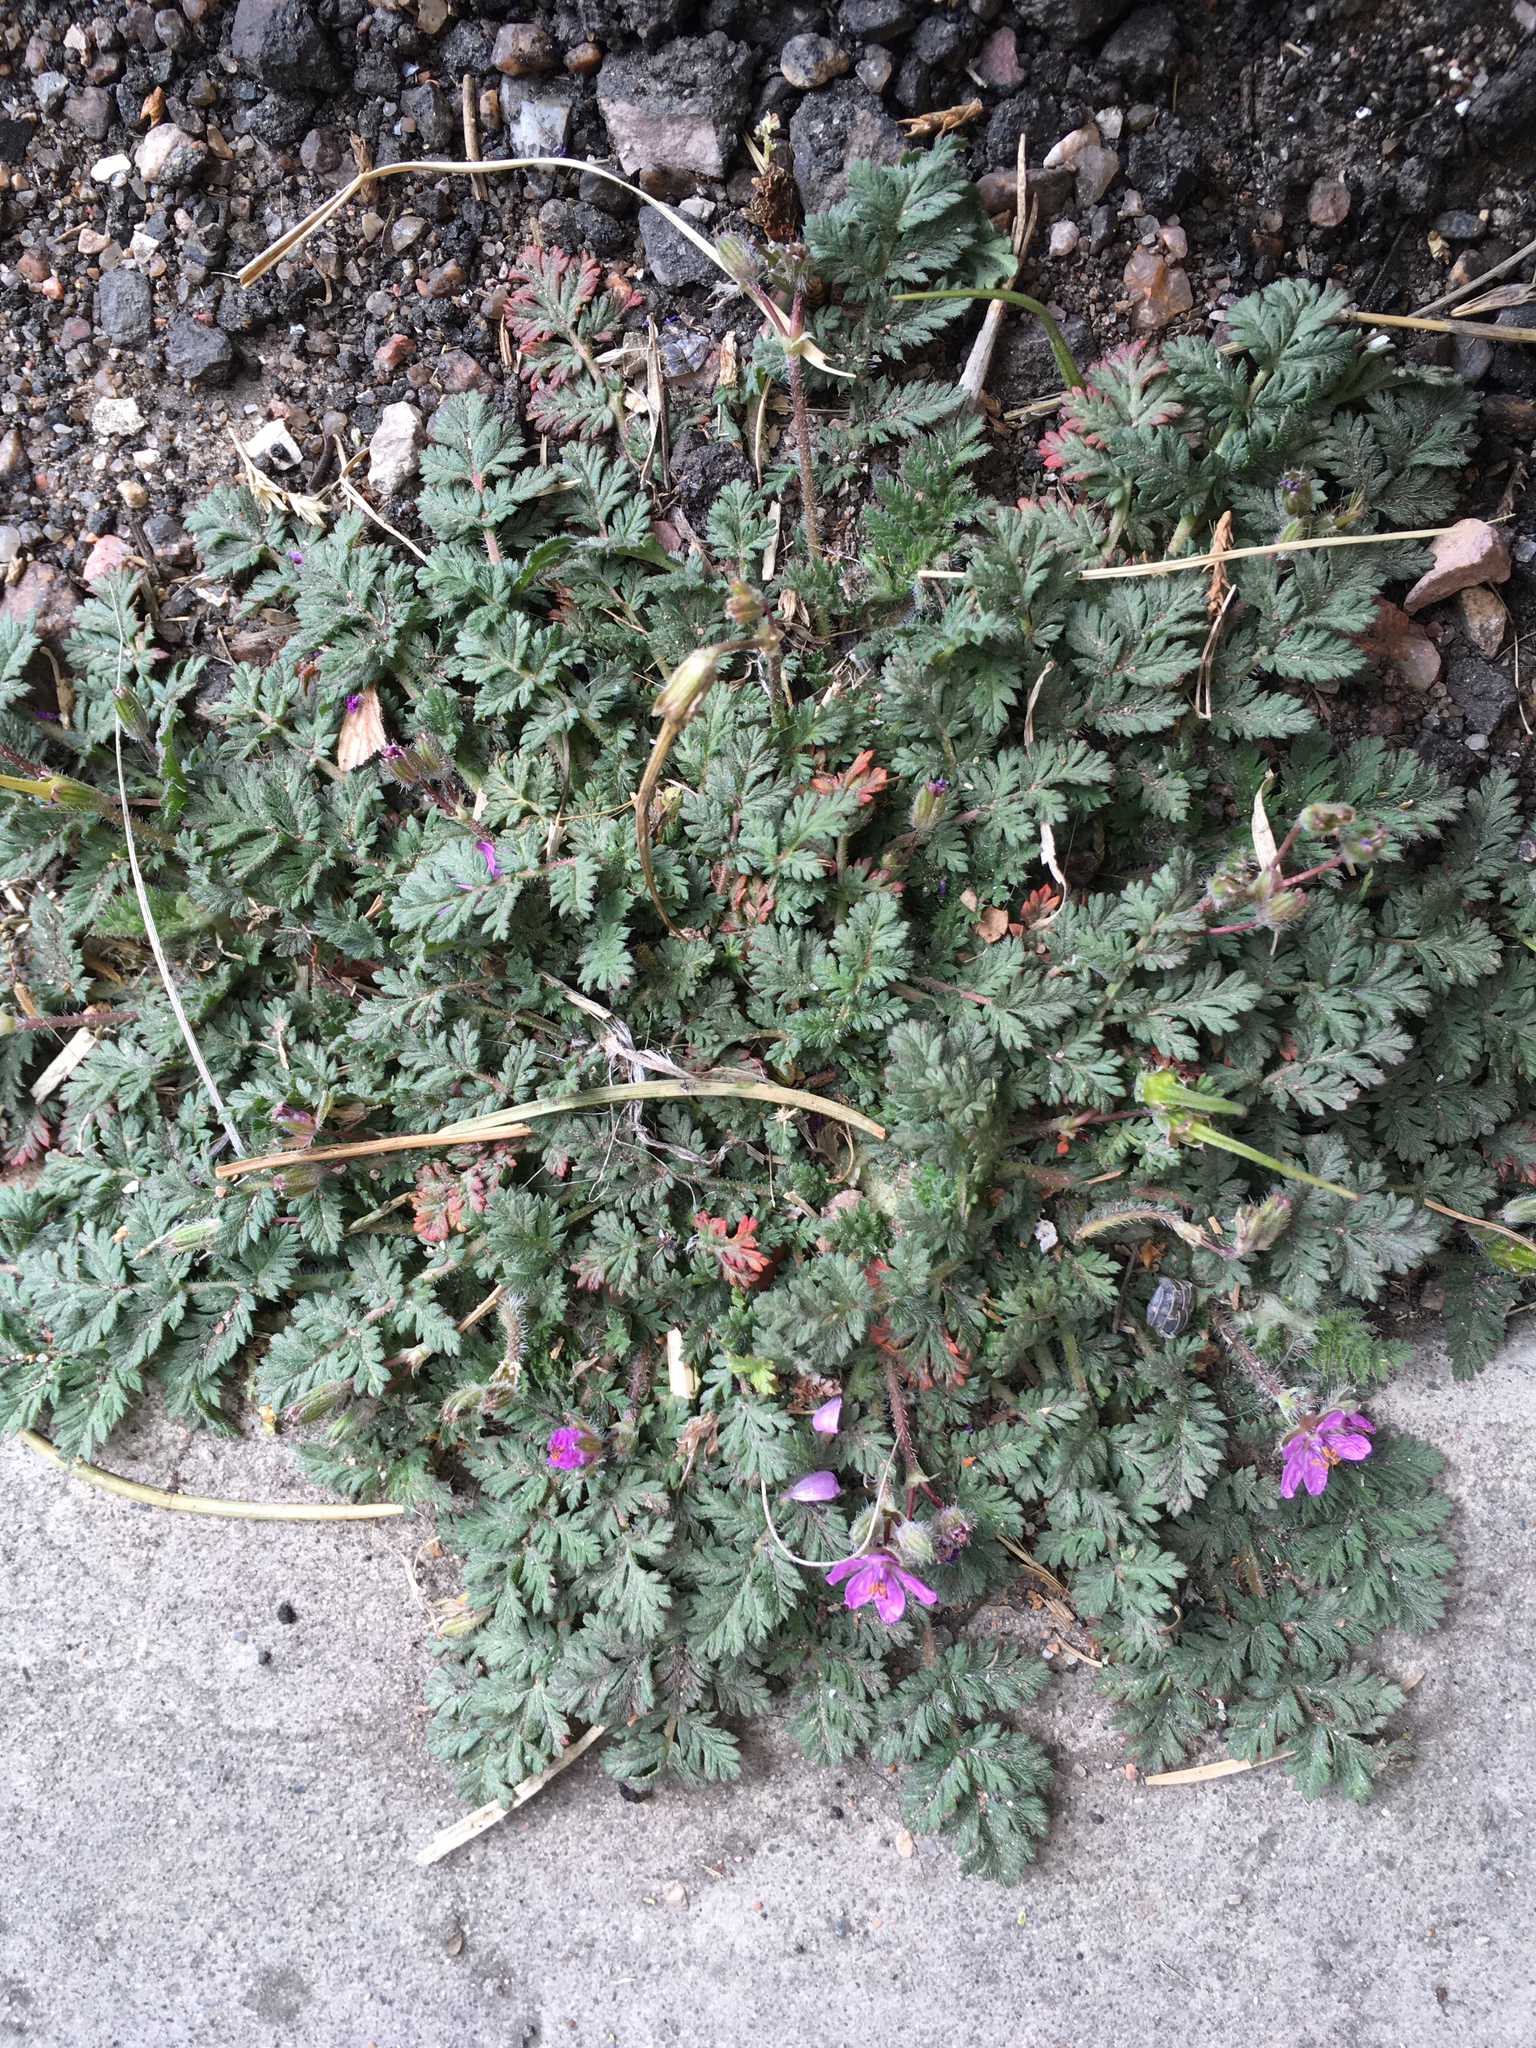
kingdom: Plantae
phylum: Tracheophyta
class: Magnoliopsida
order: Geraniales
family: Geraniaceae
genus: Erodium
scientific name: Erodium cicutarium
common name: Common stork's-bill
